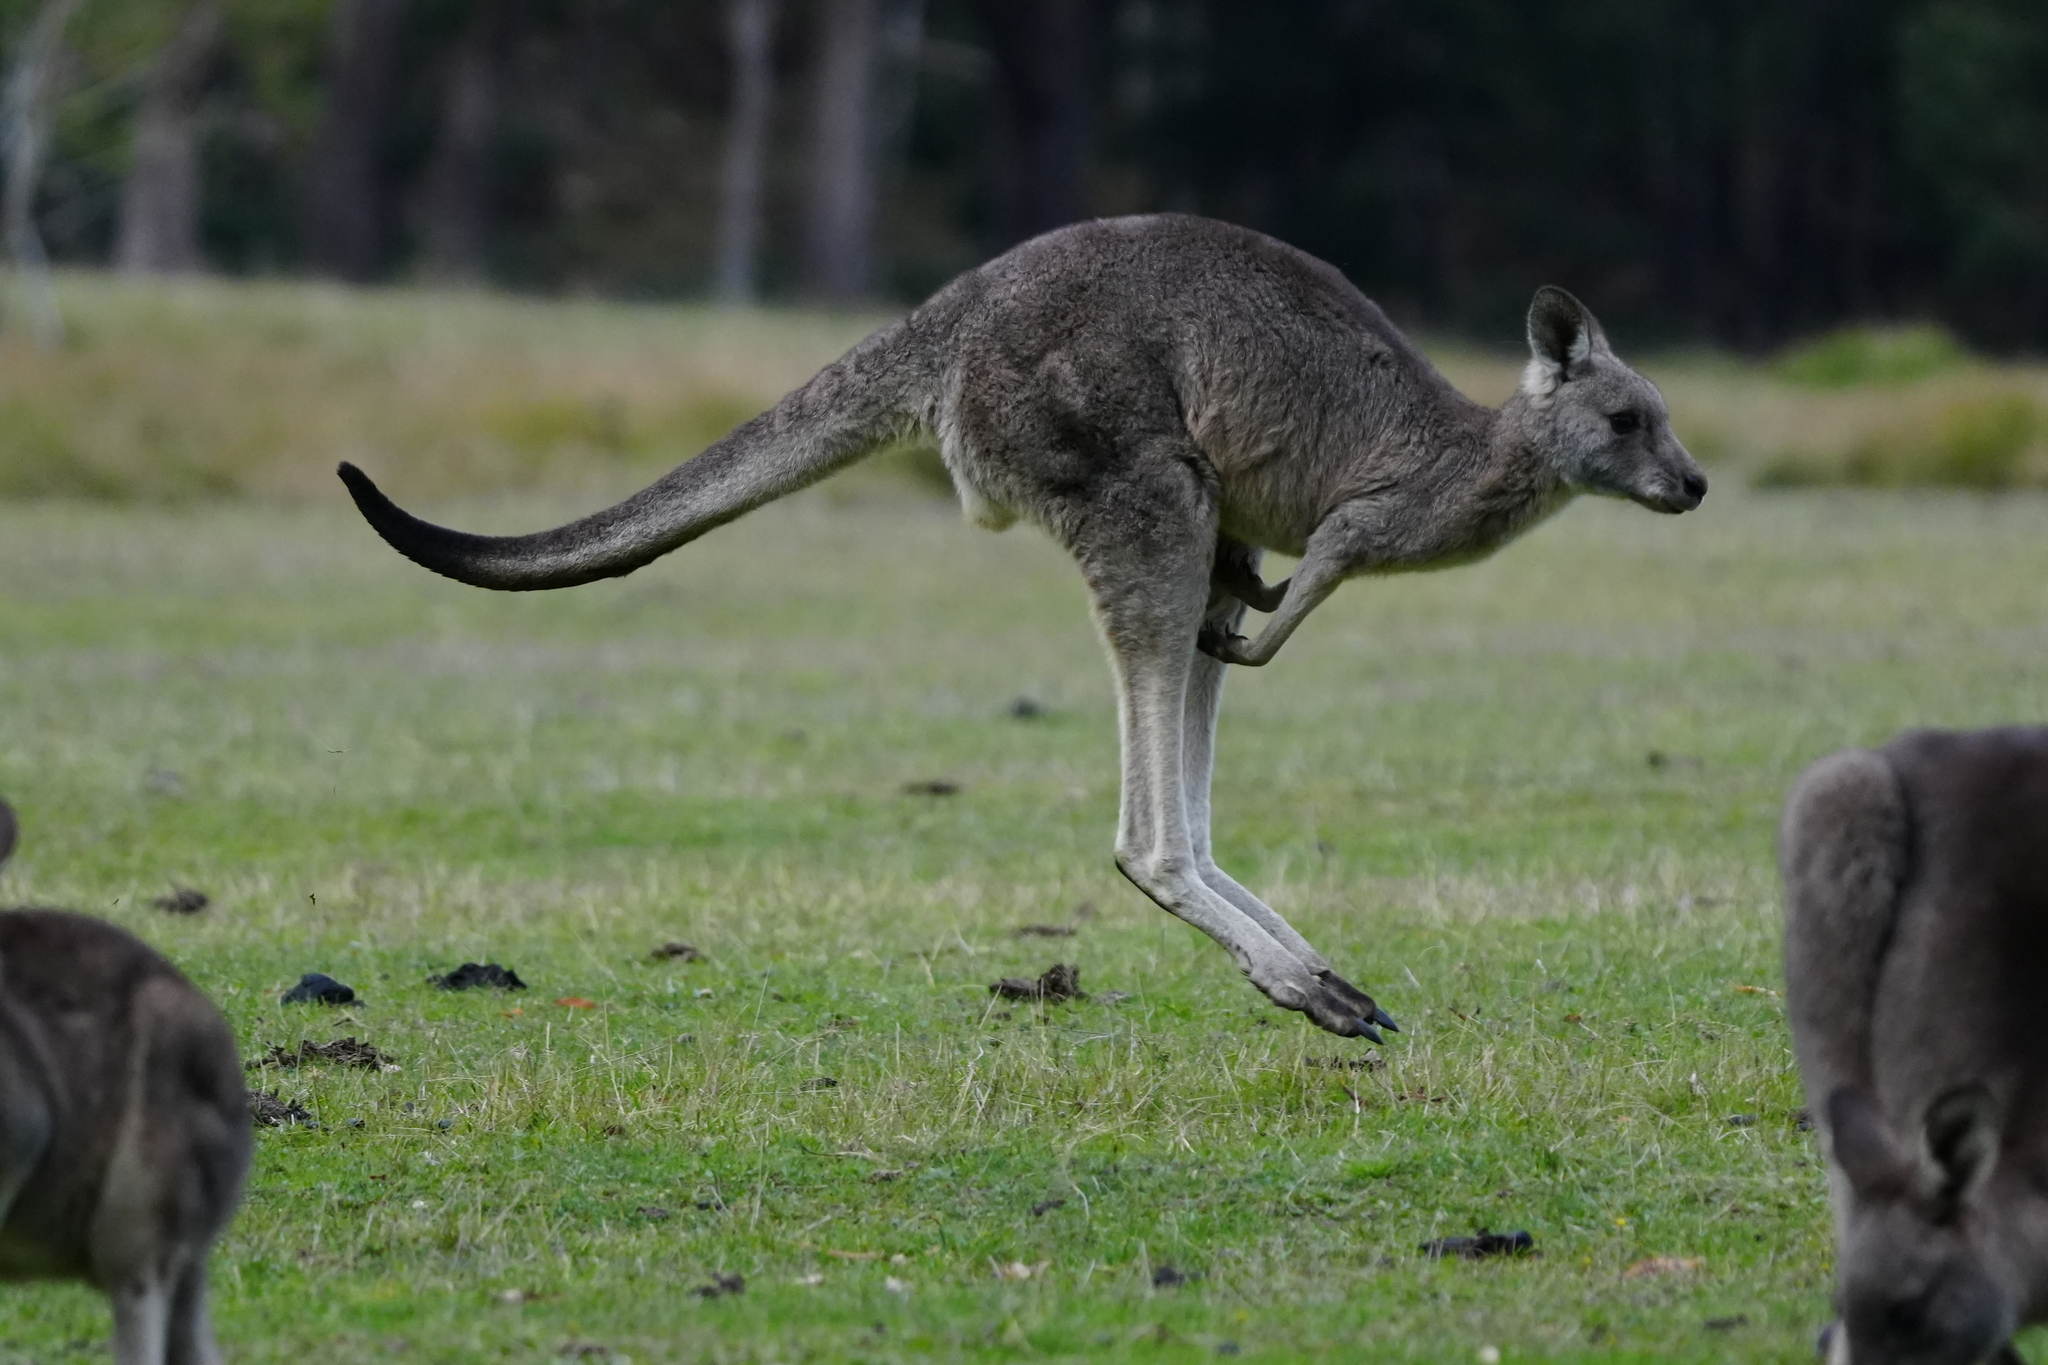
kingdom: Animalia
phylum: Chordata
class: Mammalia
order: Diprotodontia
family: Macropodidae
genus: Macropus
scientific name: Macropus giganteus
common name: Eastern grey kangaroo
